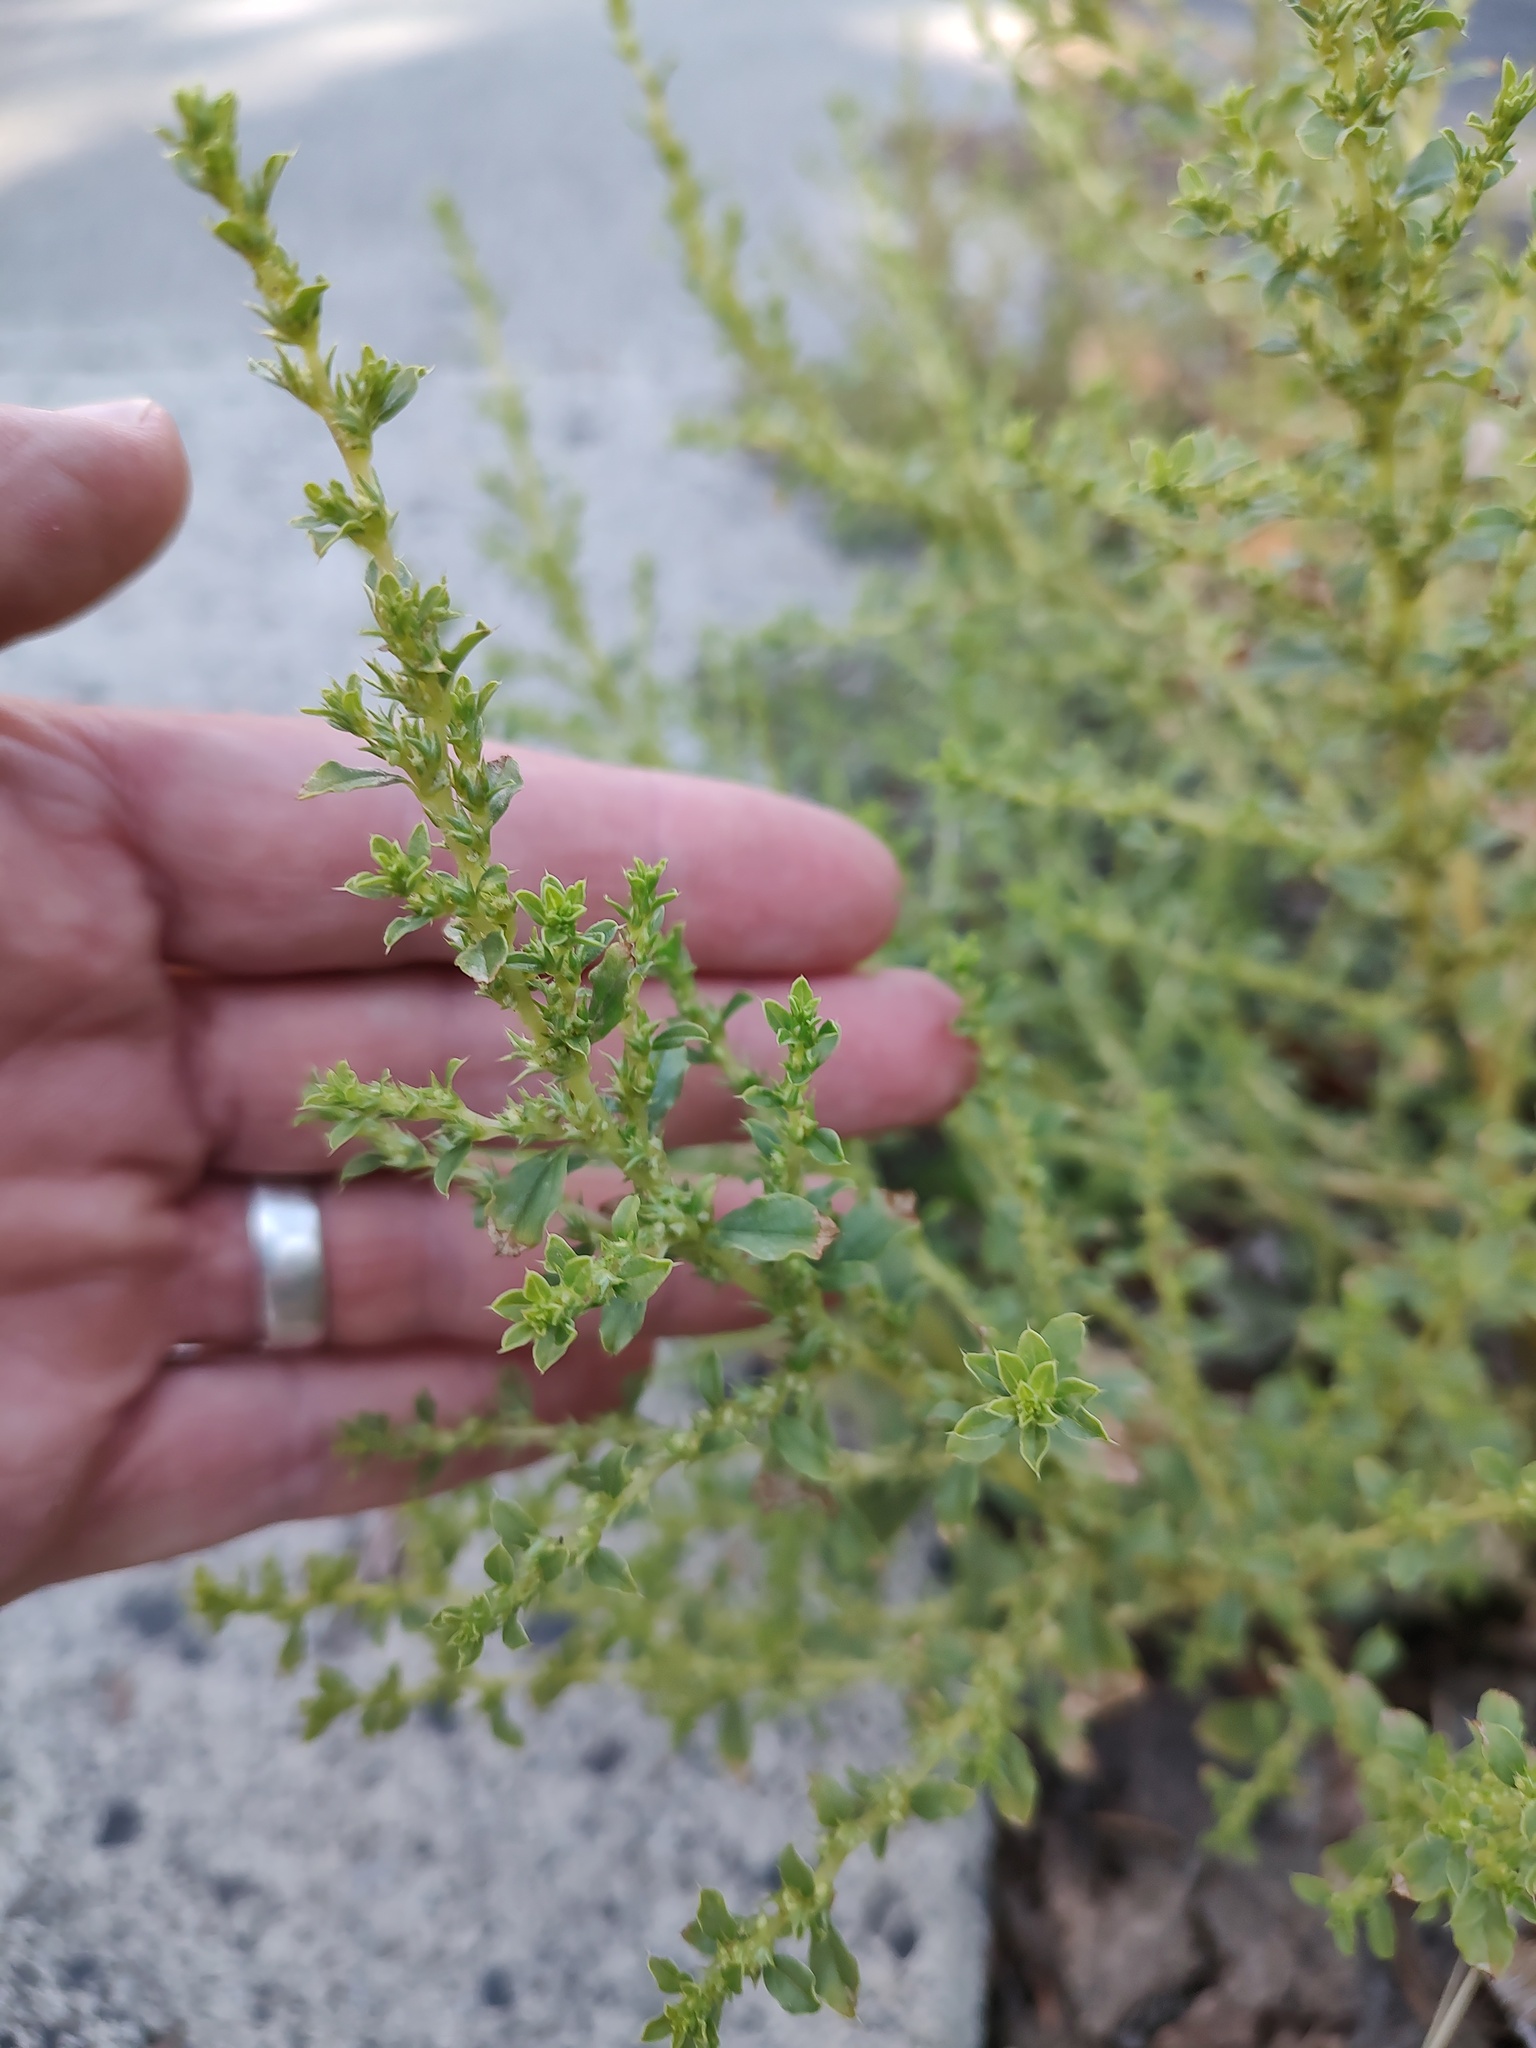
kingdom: Plantae
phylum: Tracheophyta
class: Magnoliopsida
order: Caryophyllales
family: Amaranthaceae
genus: Amaranthus
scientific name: Amaranthus albus
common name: White pigweed
